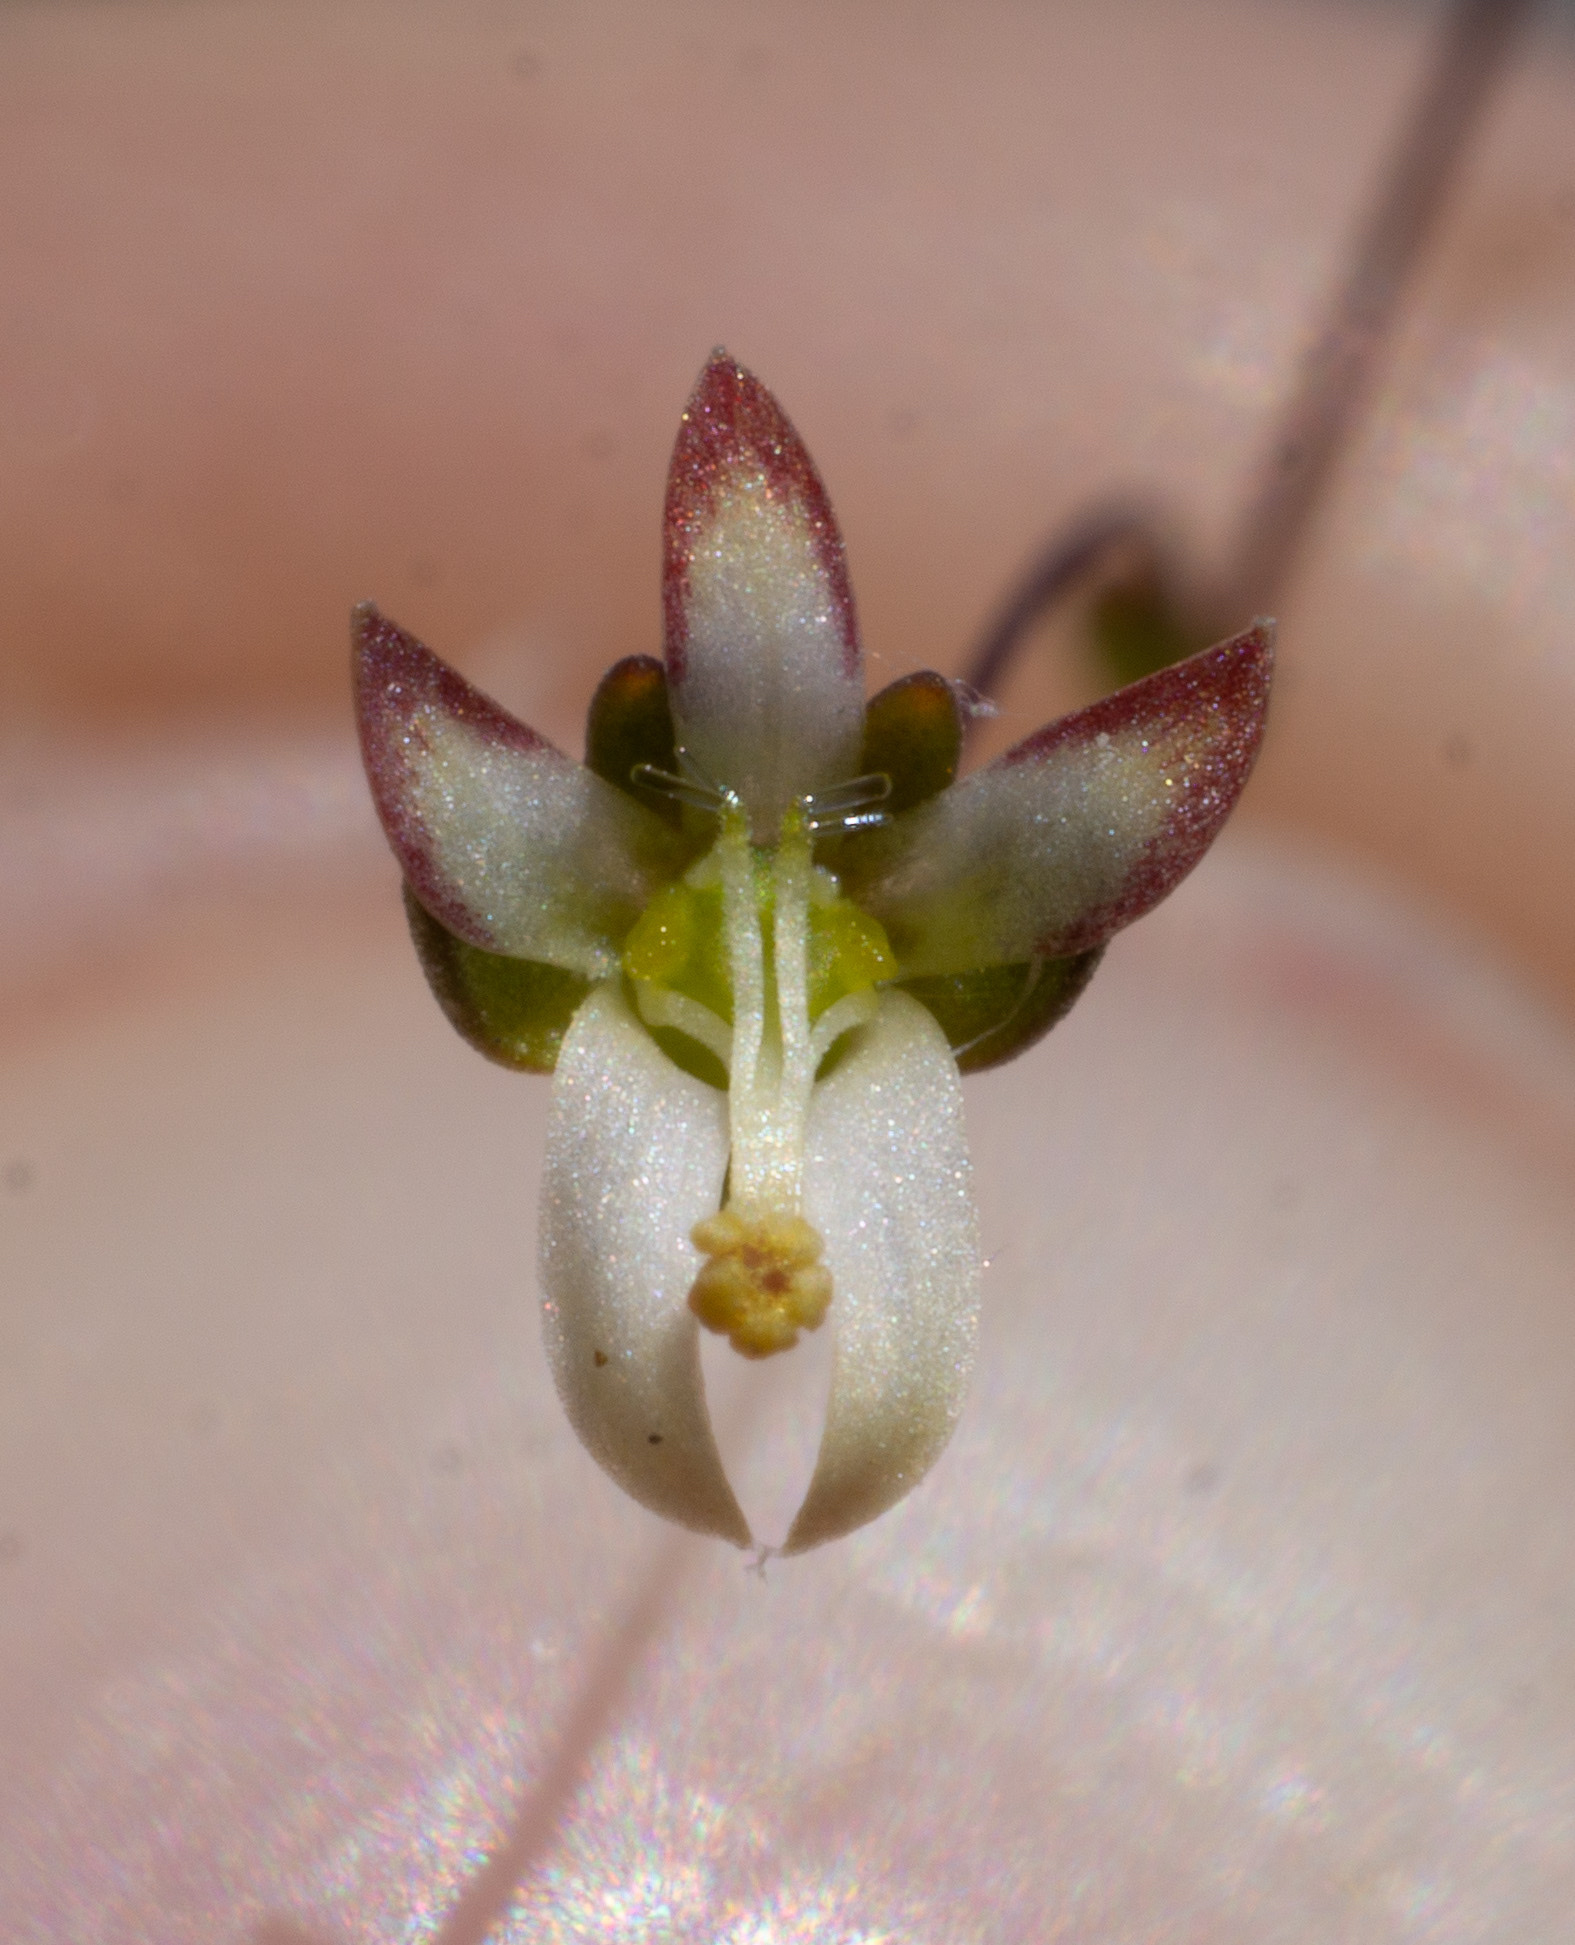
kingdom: Plantae
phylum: Tracheophyta
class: Magnoliopsida
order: Asterales
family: Campanulaceae
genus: Nemacladus
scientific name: Nemacladus morefieldii
